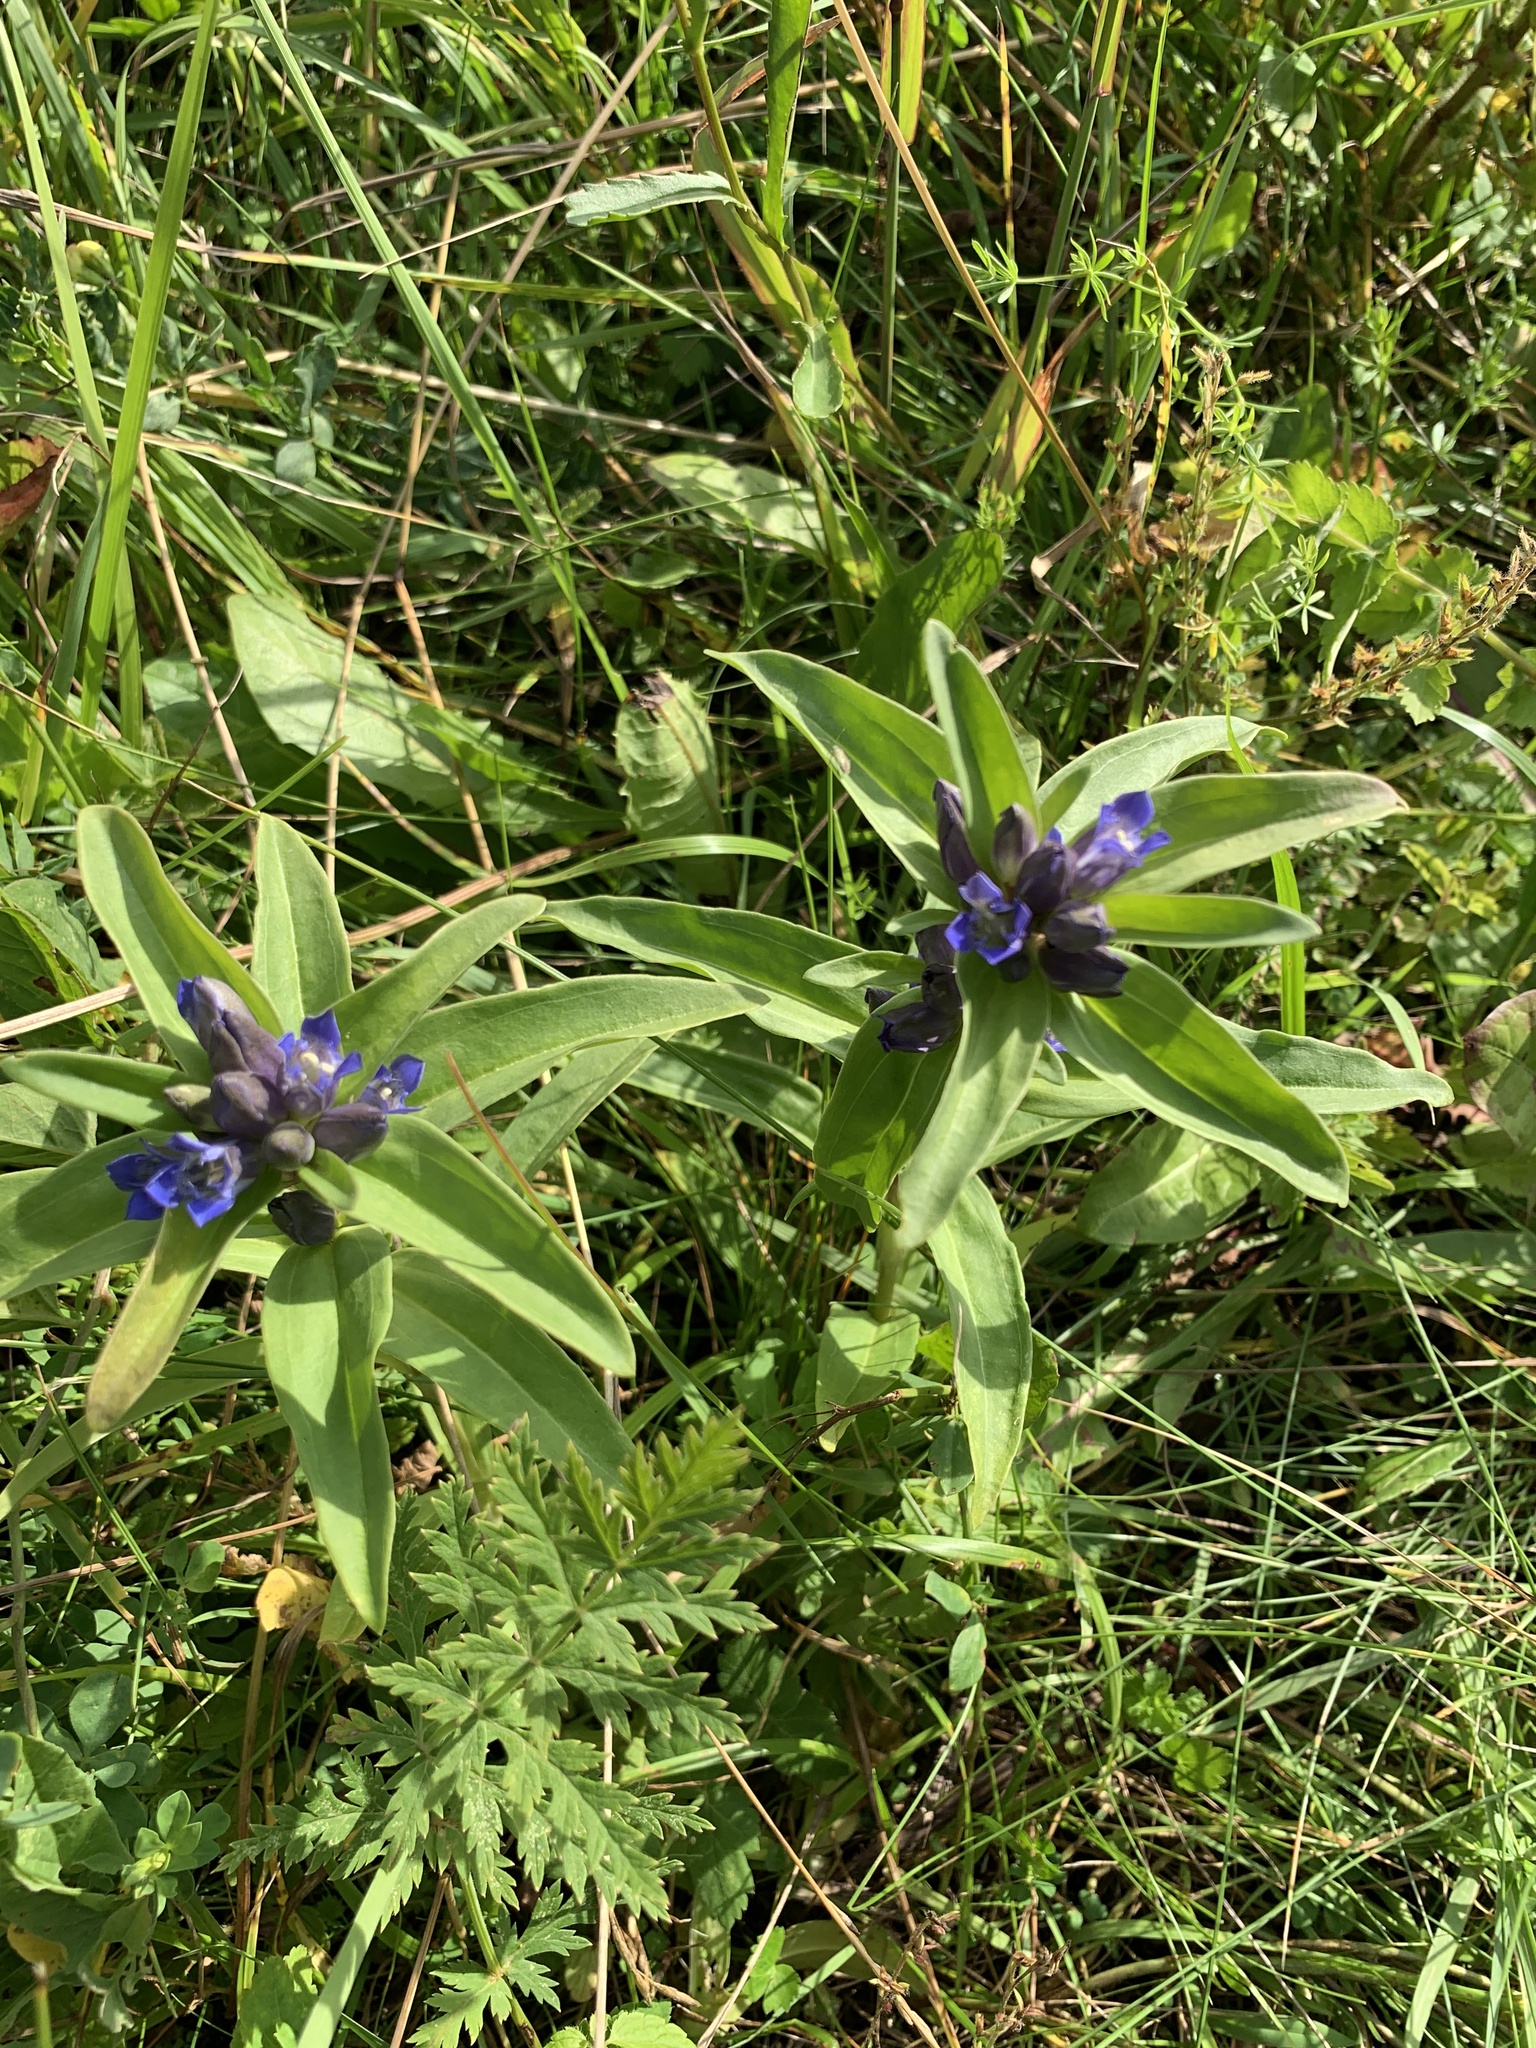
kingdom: Plantae
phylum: Tracheophyta
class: Magnoliopsida
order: Gentianales
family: Gentianaceae
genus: Gentiana
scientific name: Gentiana cruciata
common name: Cross gentian
